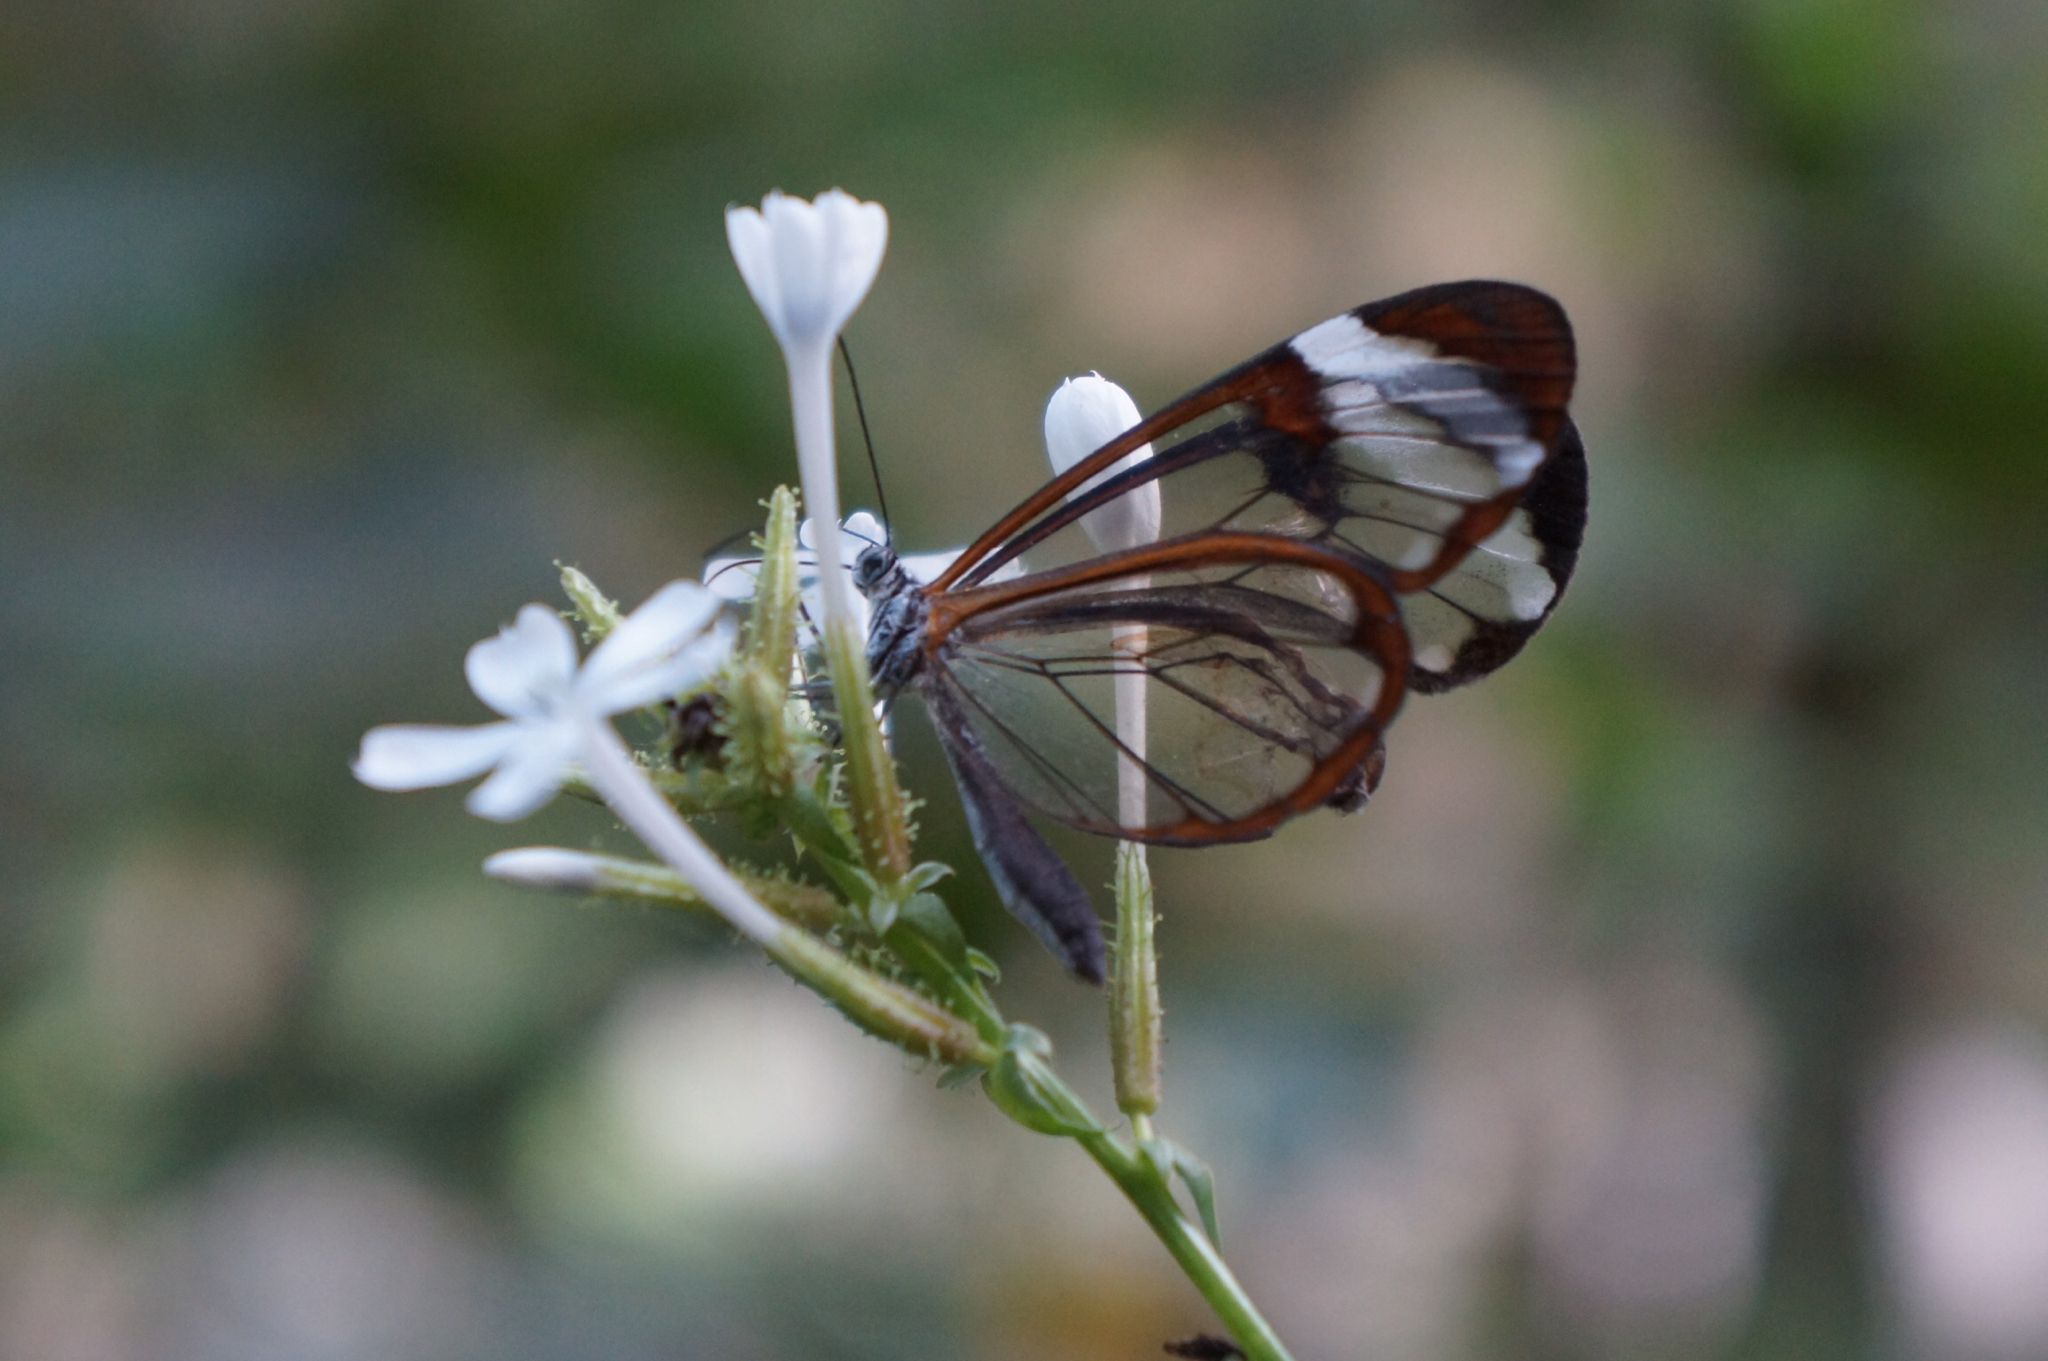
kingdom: Animalia
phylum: Arthropoda
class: Insecta
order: Lepidoptera
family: Nymphalidae
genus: Greta
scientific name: Greta morgane
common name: Thick-tipped greta
